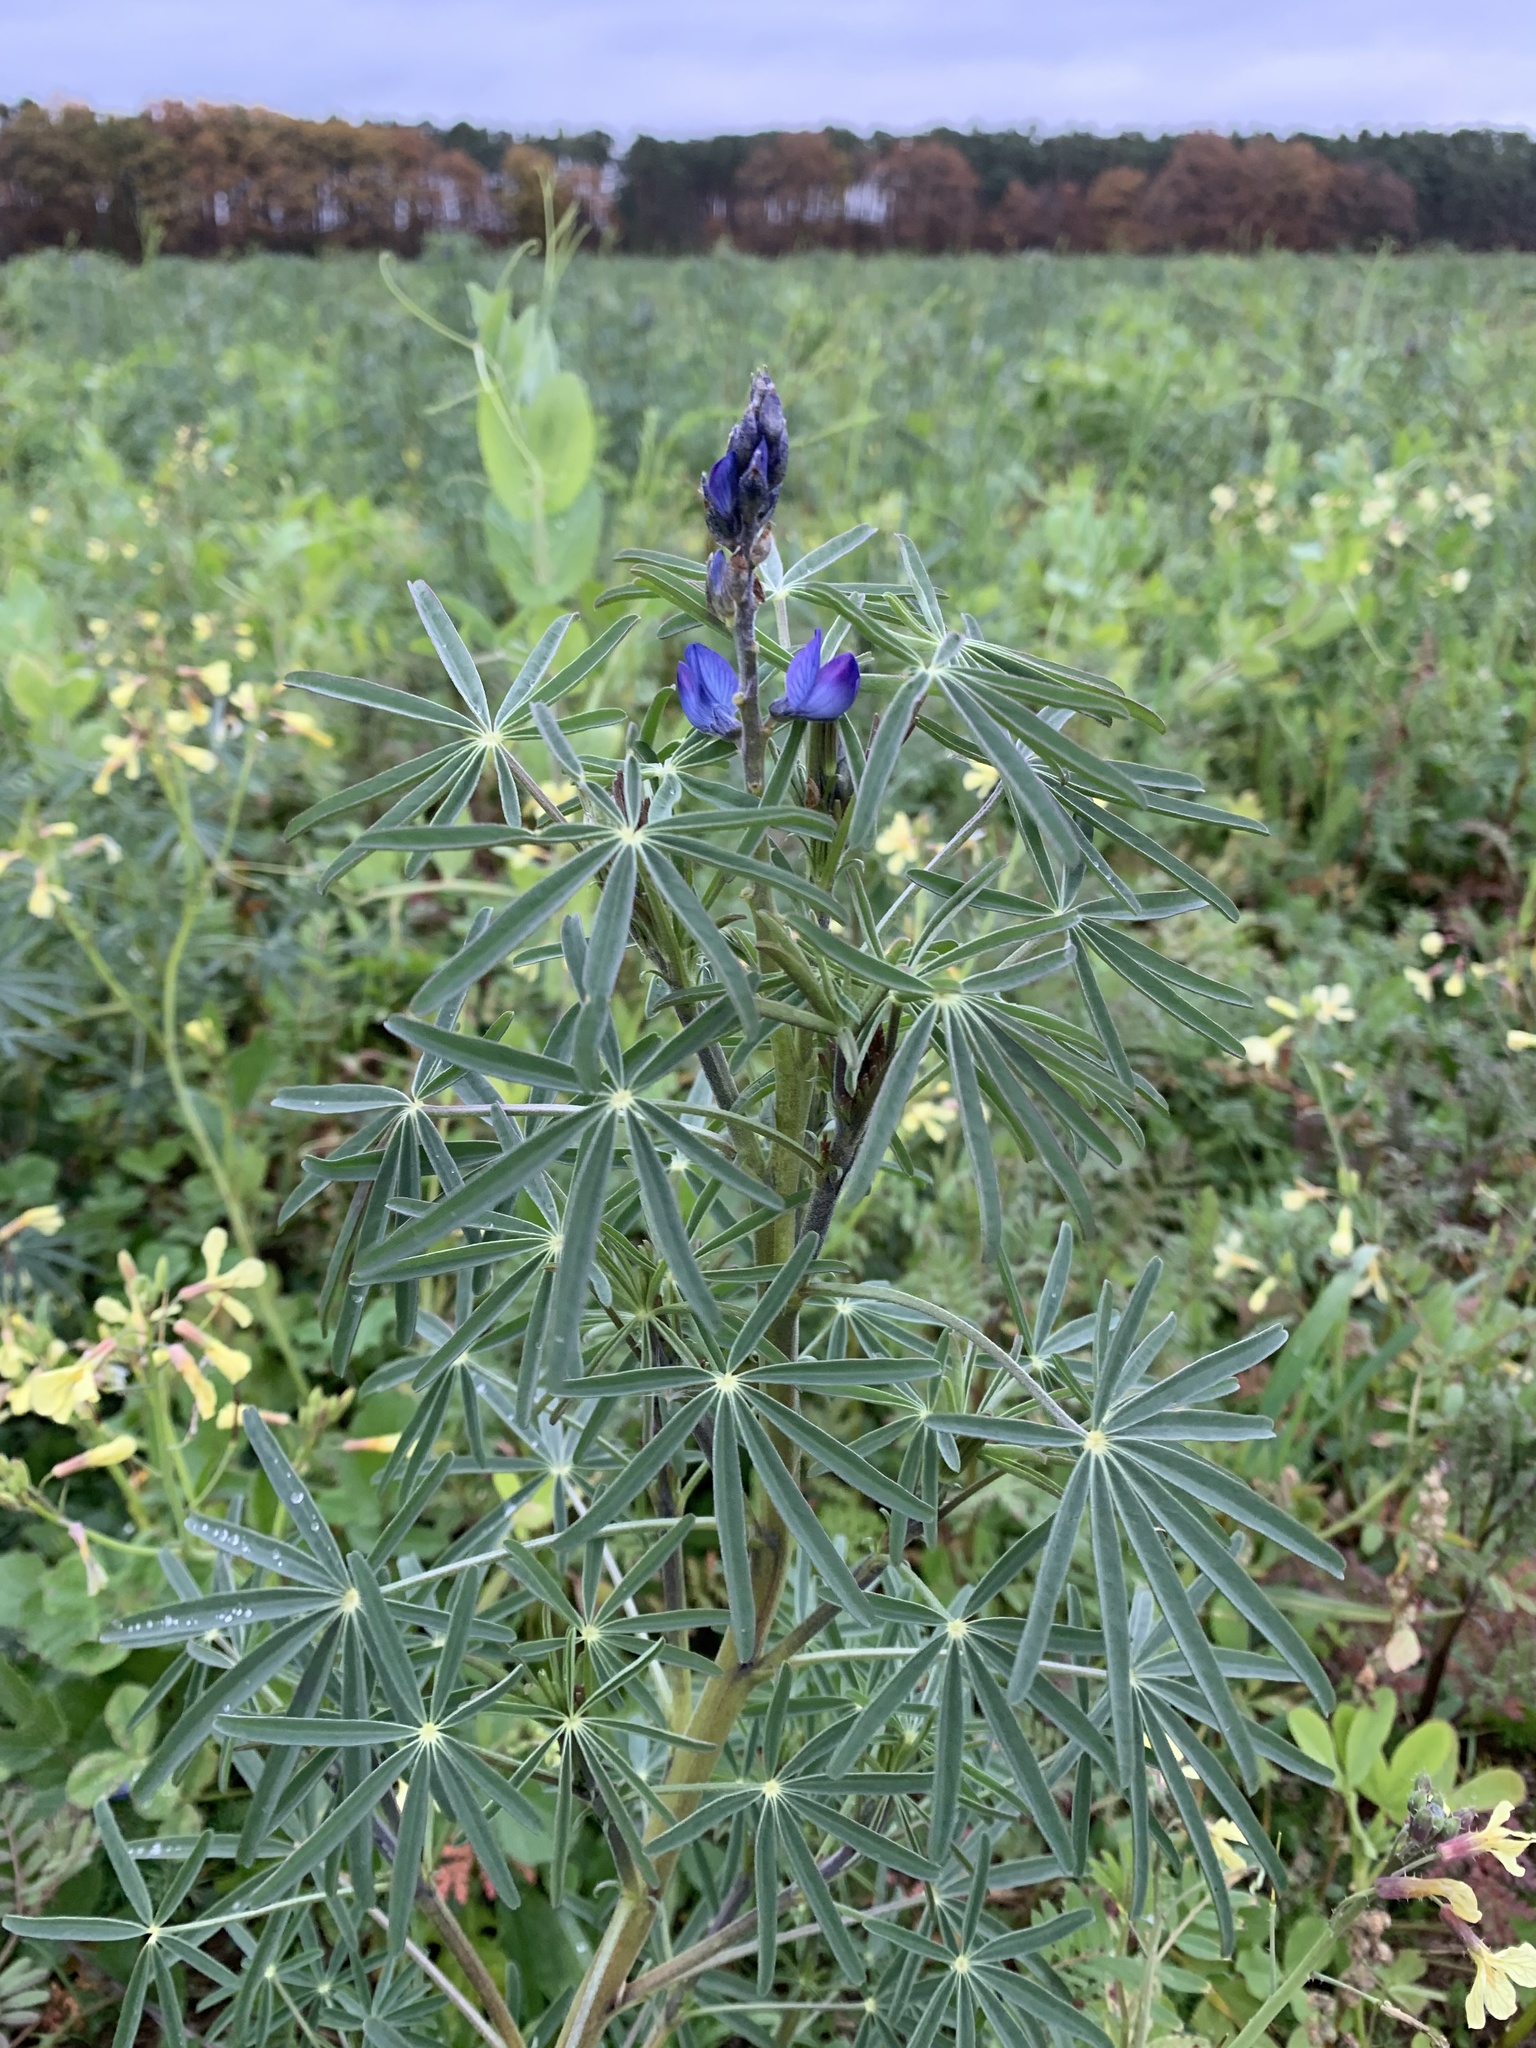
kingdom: Plantae
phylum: Tracheophyta
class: Magnoliopsida
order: Fabales
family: Fabaceae
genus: Lupinus
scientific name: Lupinus angustifolius
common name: Narrow-leaved lupin
